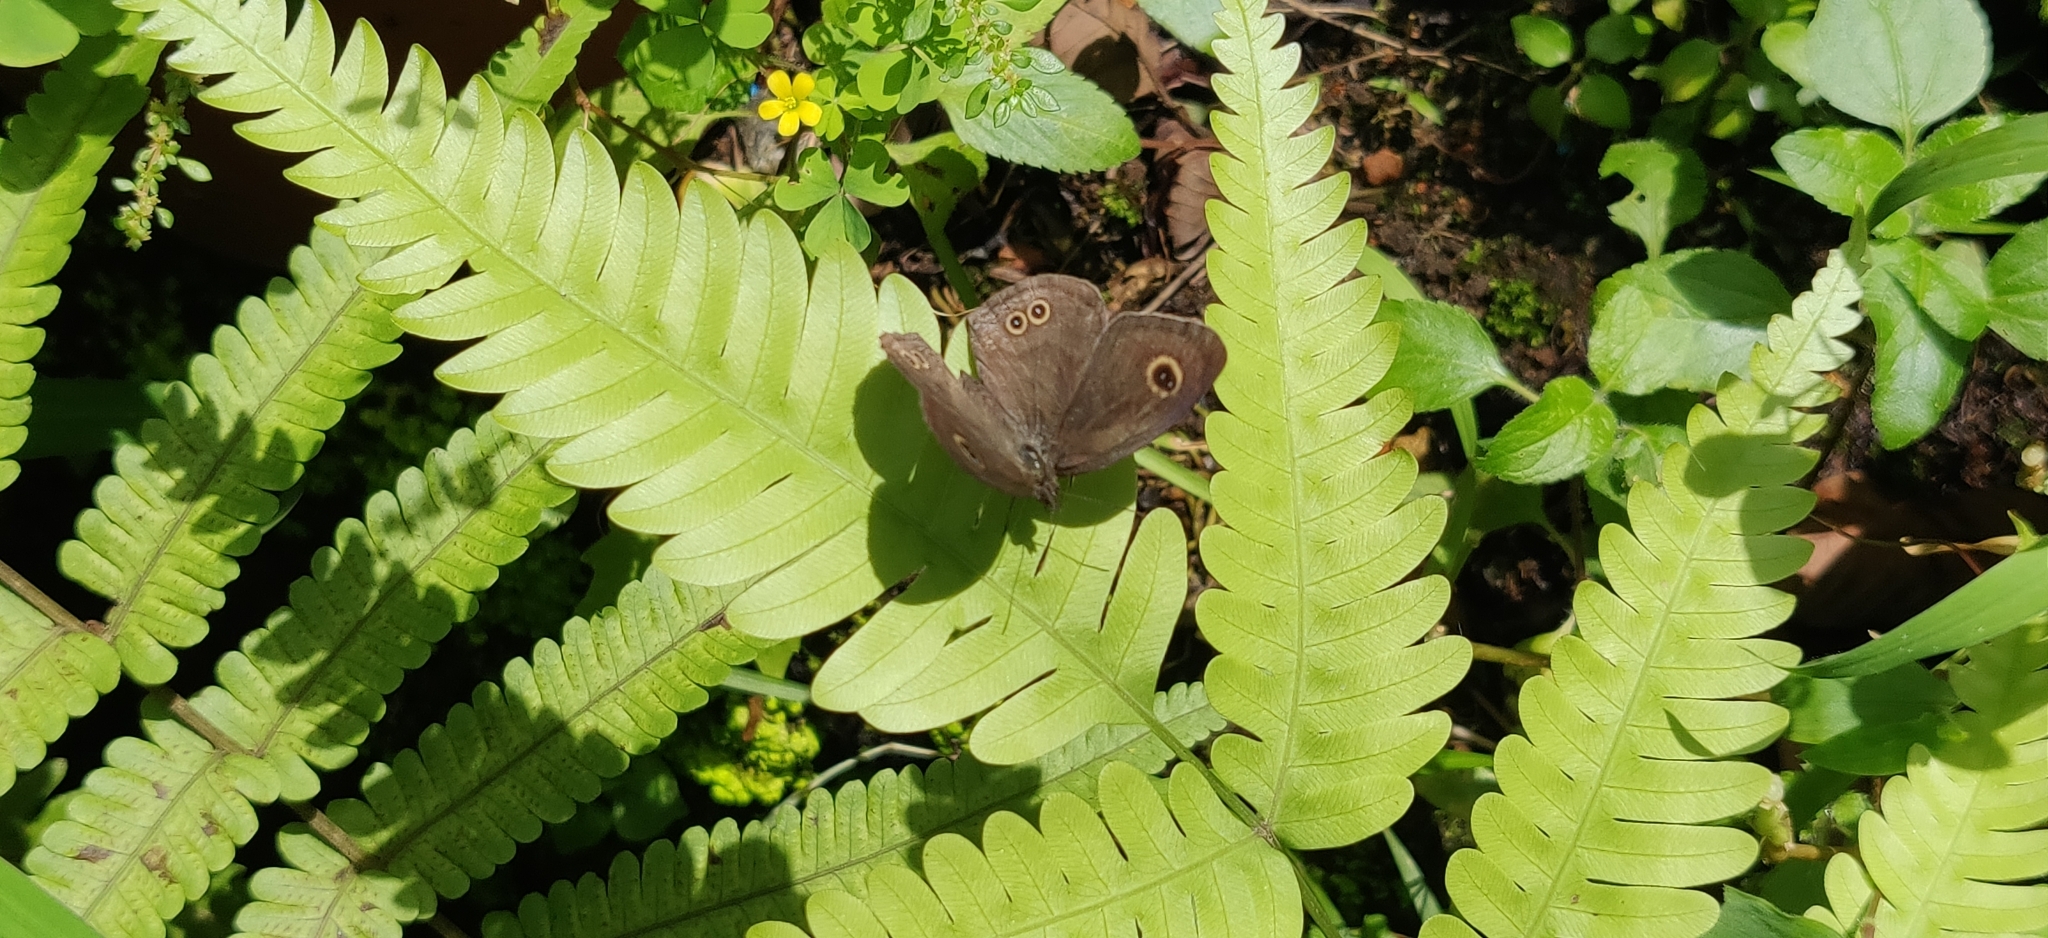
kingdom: Animalia
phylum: Arthropoda
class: Insecta
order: Lepidoptera
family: Nymphalidae
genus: Ypthima
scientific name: Ypthima huebneri
